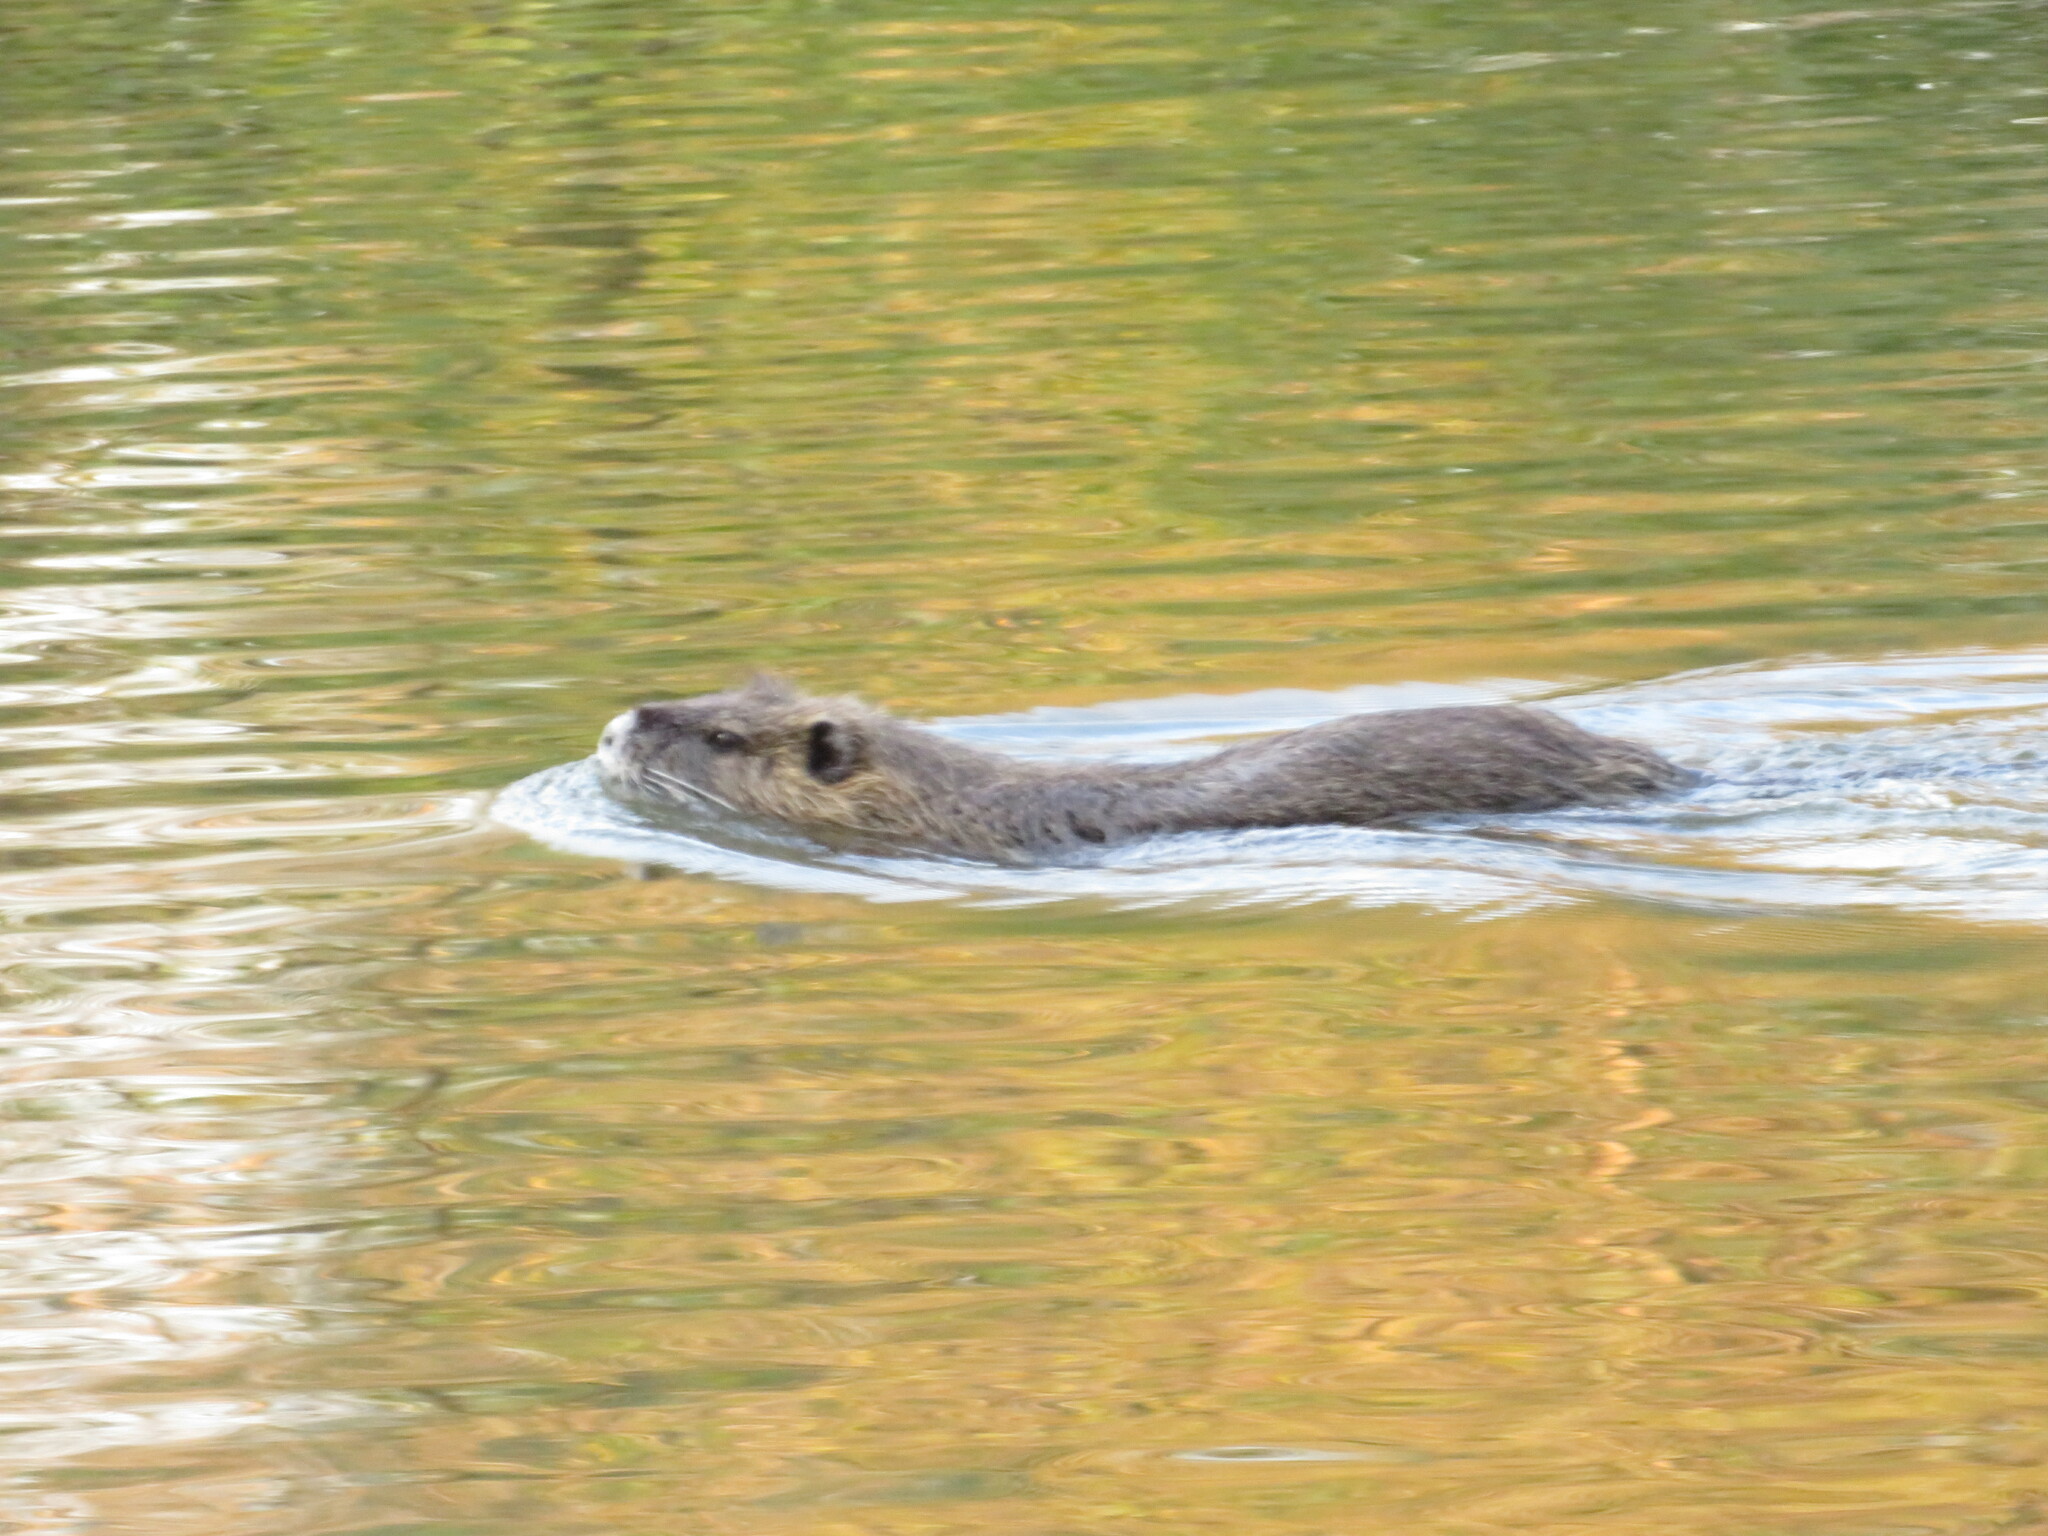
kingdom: Animalia
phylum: Chordata
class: Mammalia
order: Rodentia
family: Myocastoridae
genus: Myocastor
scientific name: Myocastor coypus
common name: Coypu
